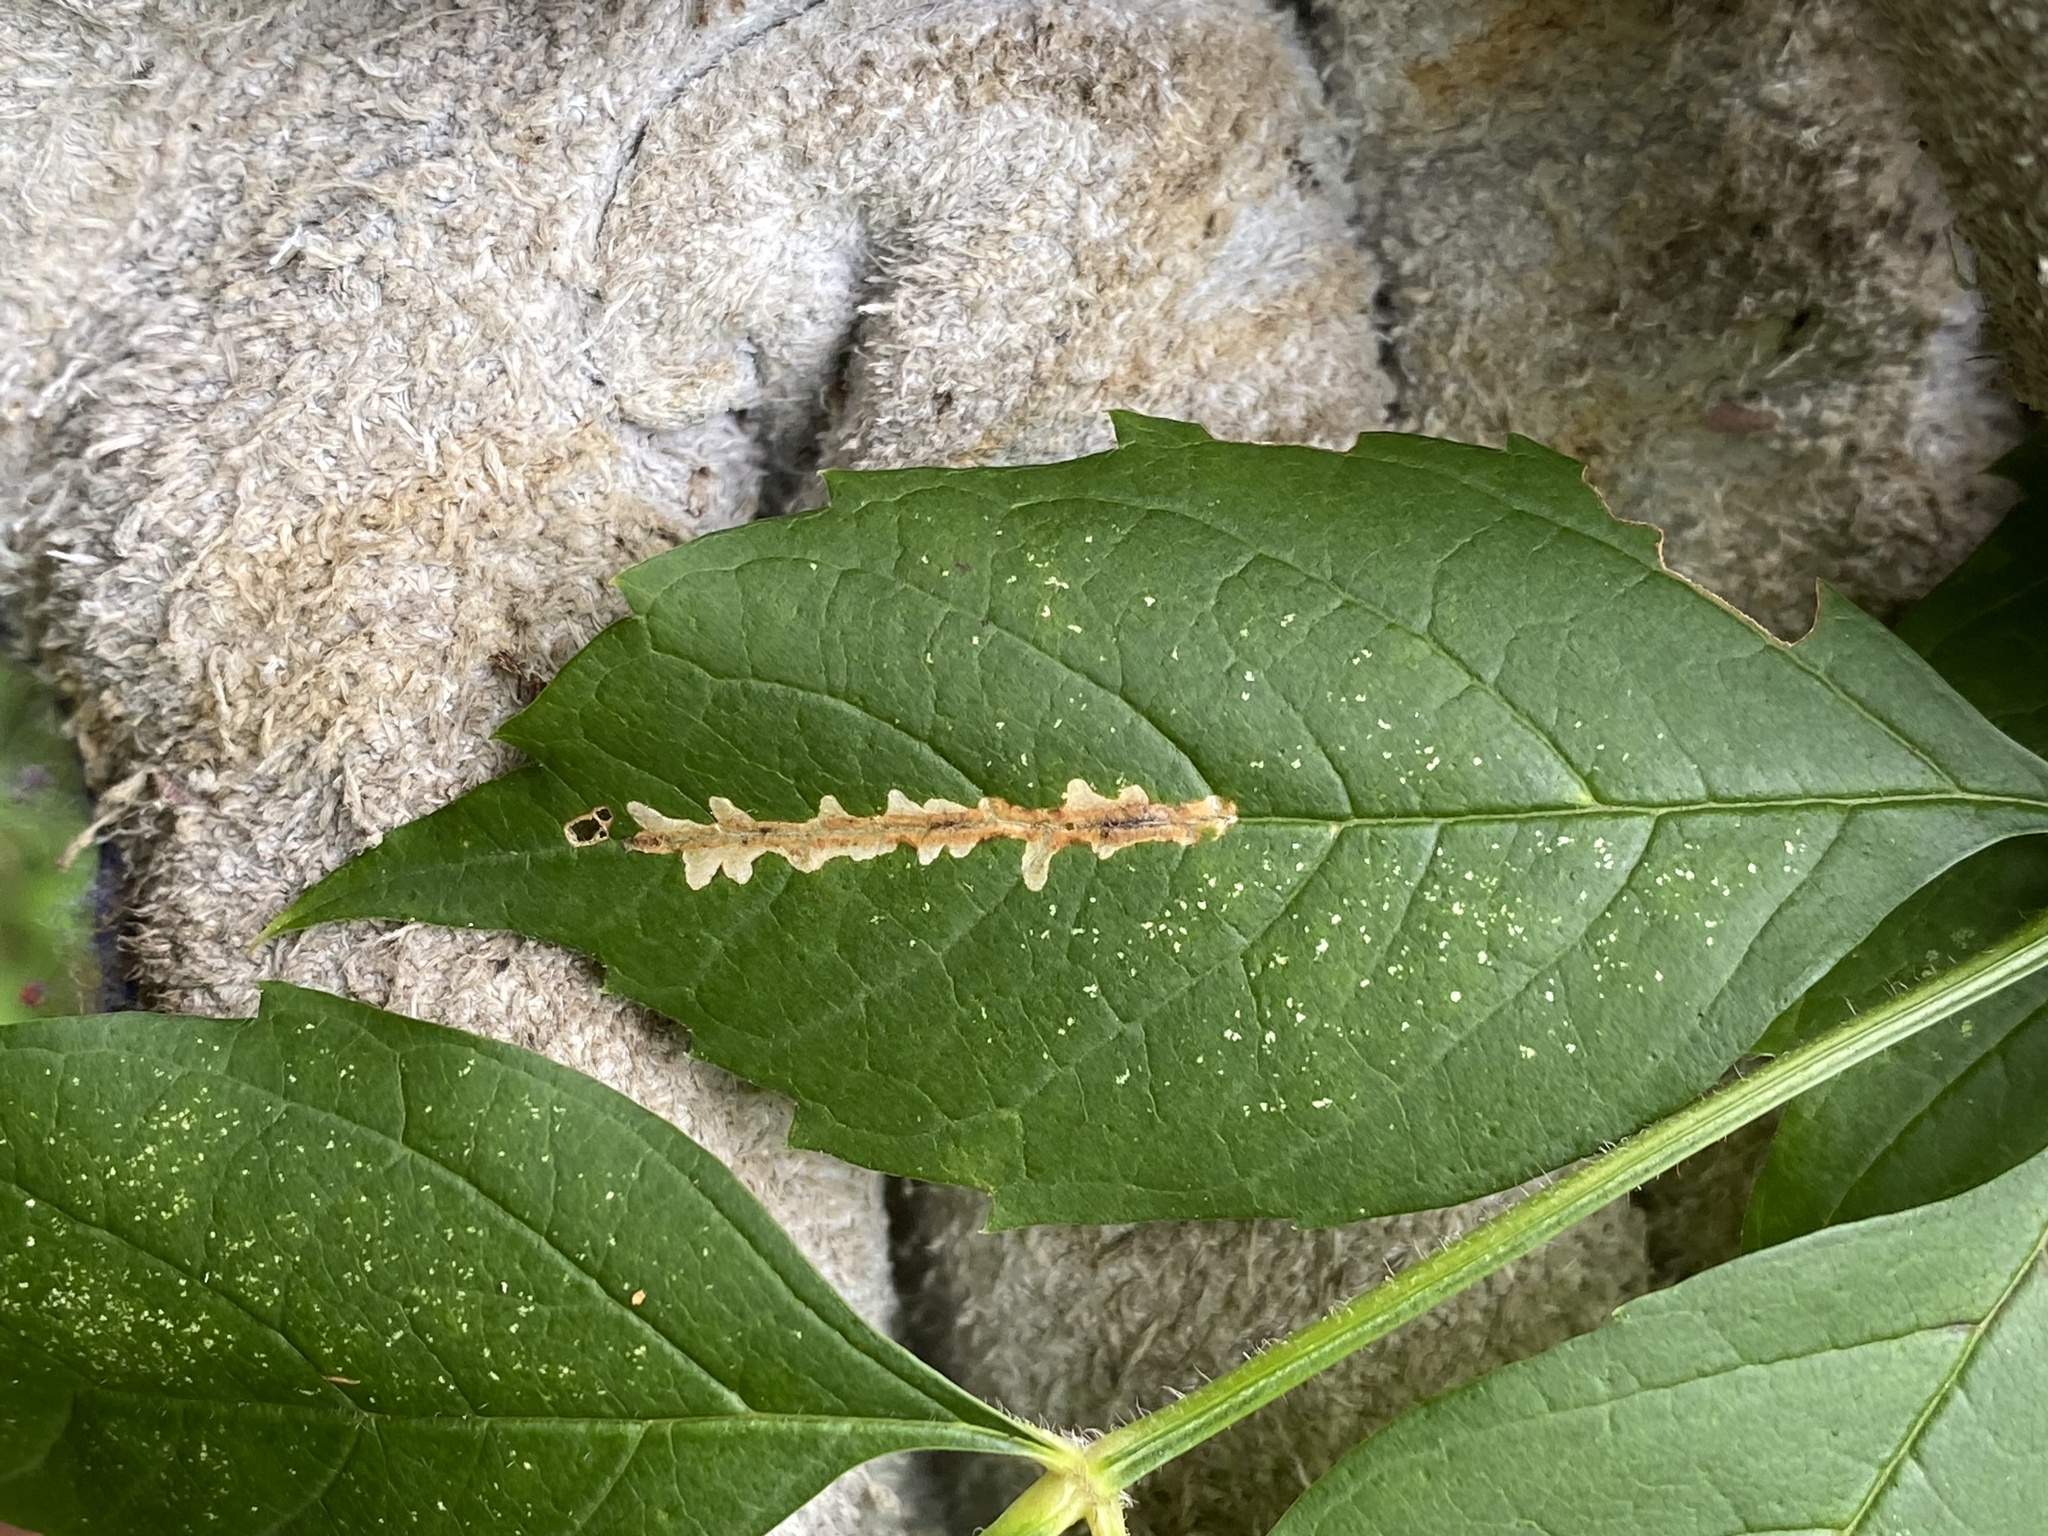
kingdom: Animalia
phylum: Arthropoda
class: Insecta
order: Coleoptera
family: Chrysomelidae
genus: Octotoma
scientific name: Octotoma plicatula
